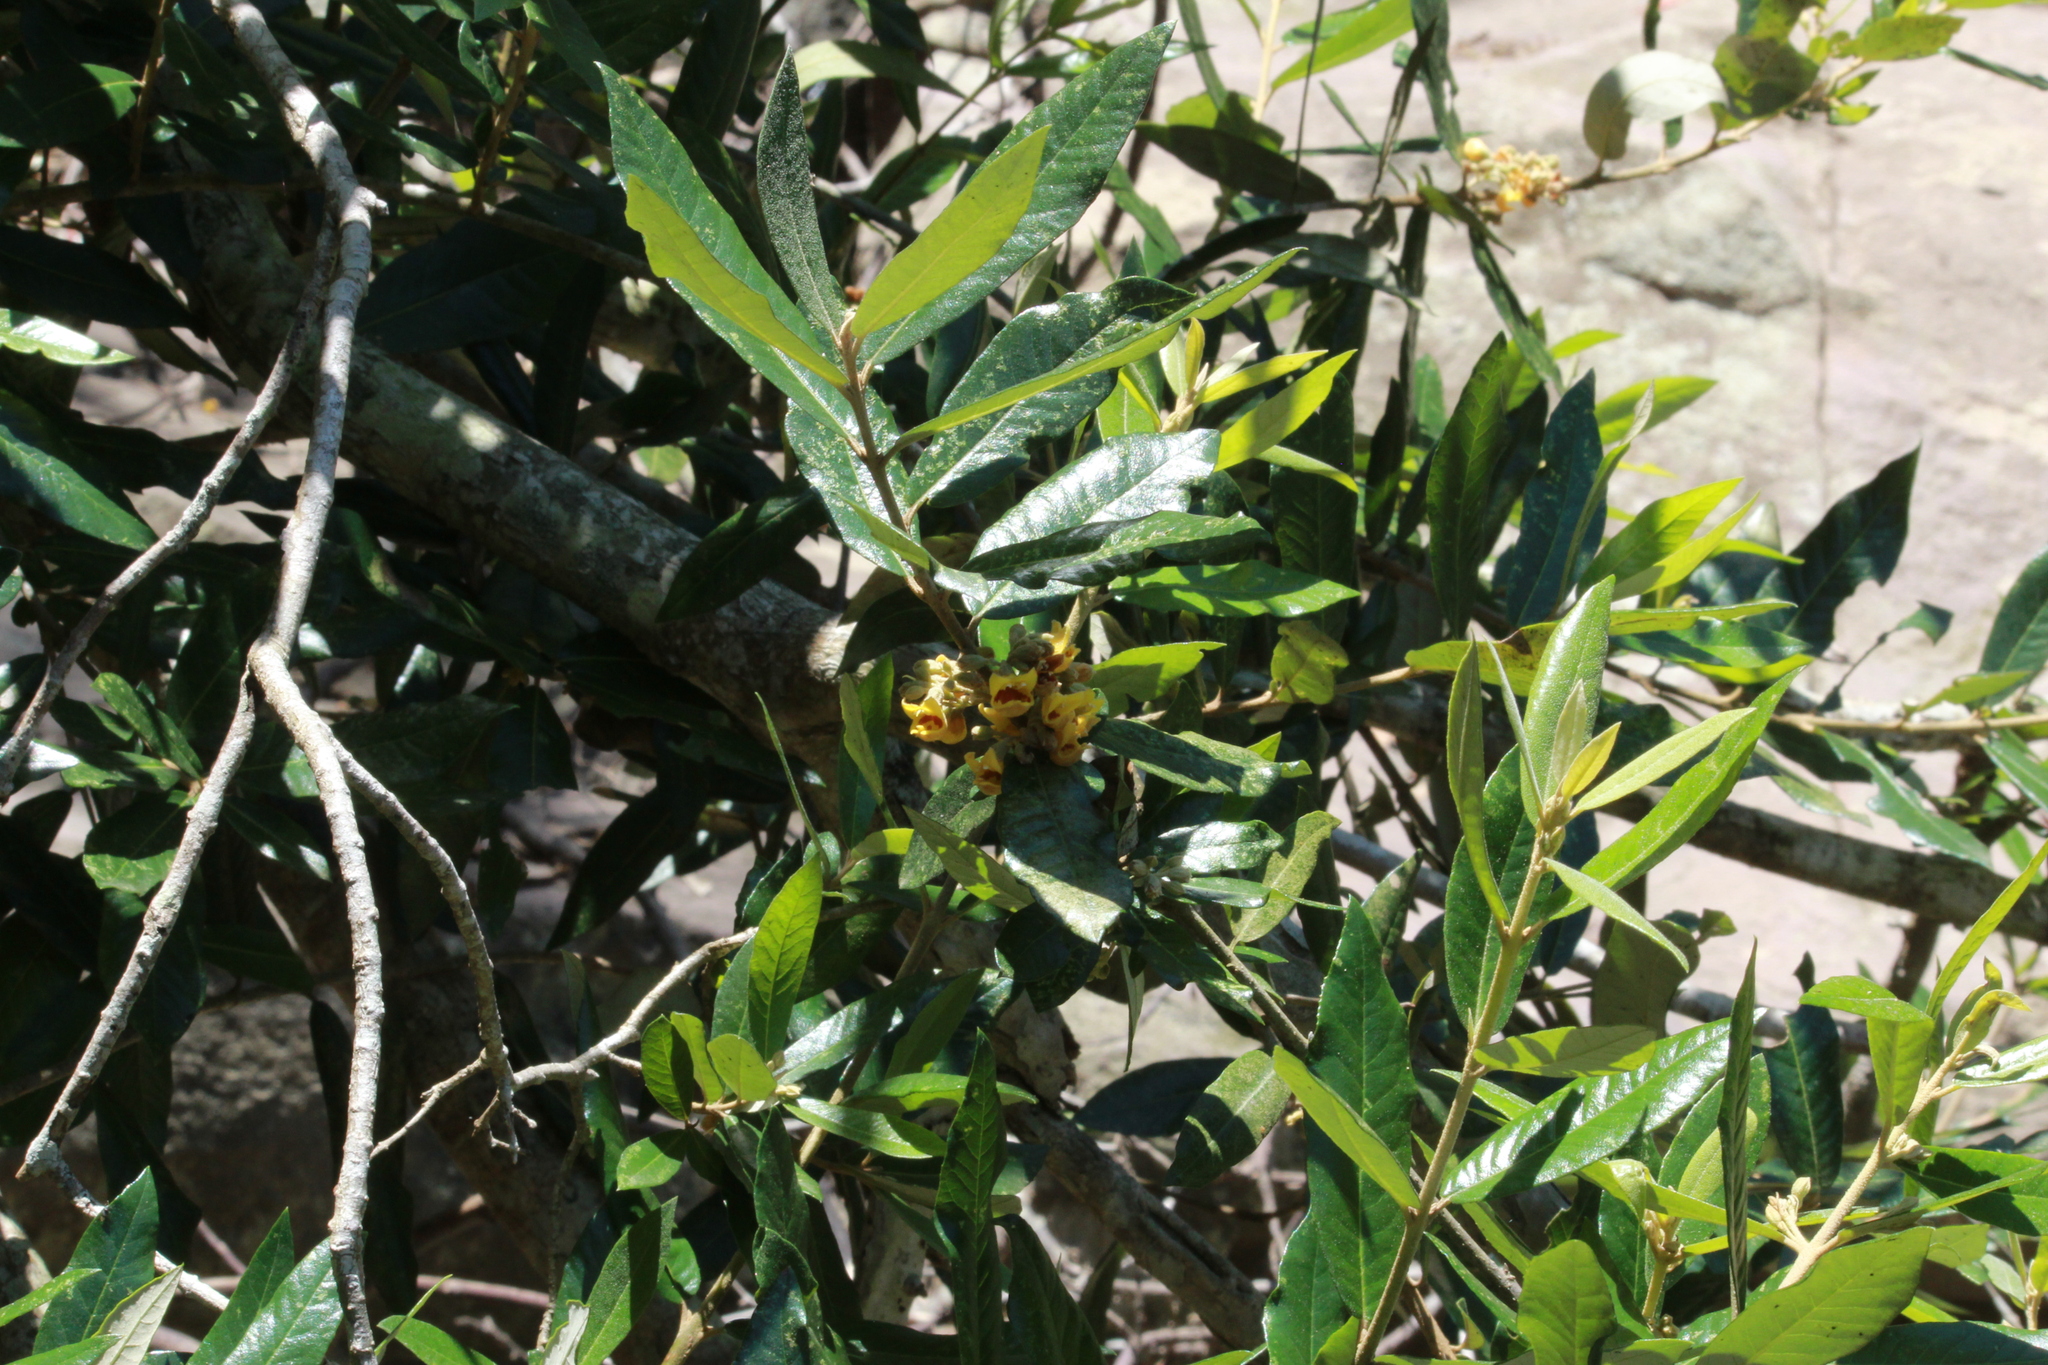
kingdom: Plantae
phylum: Tracheophyta
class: Magnoliopsida
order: Lamiales
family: Stilbaceae
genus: Anastrabe
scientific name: Anastrabe integerrima
